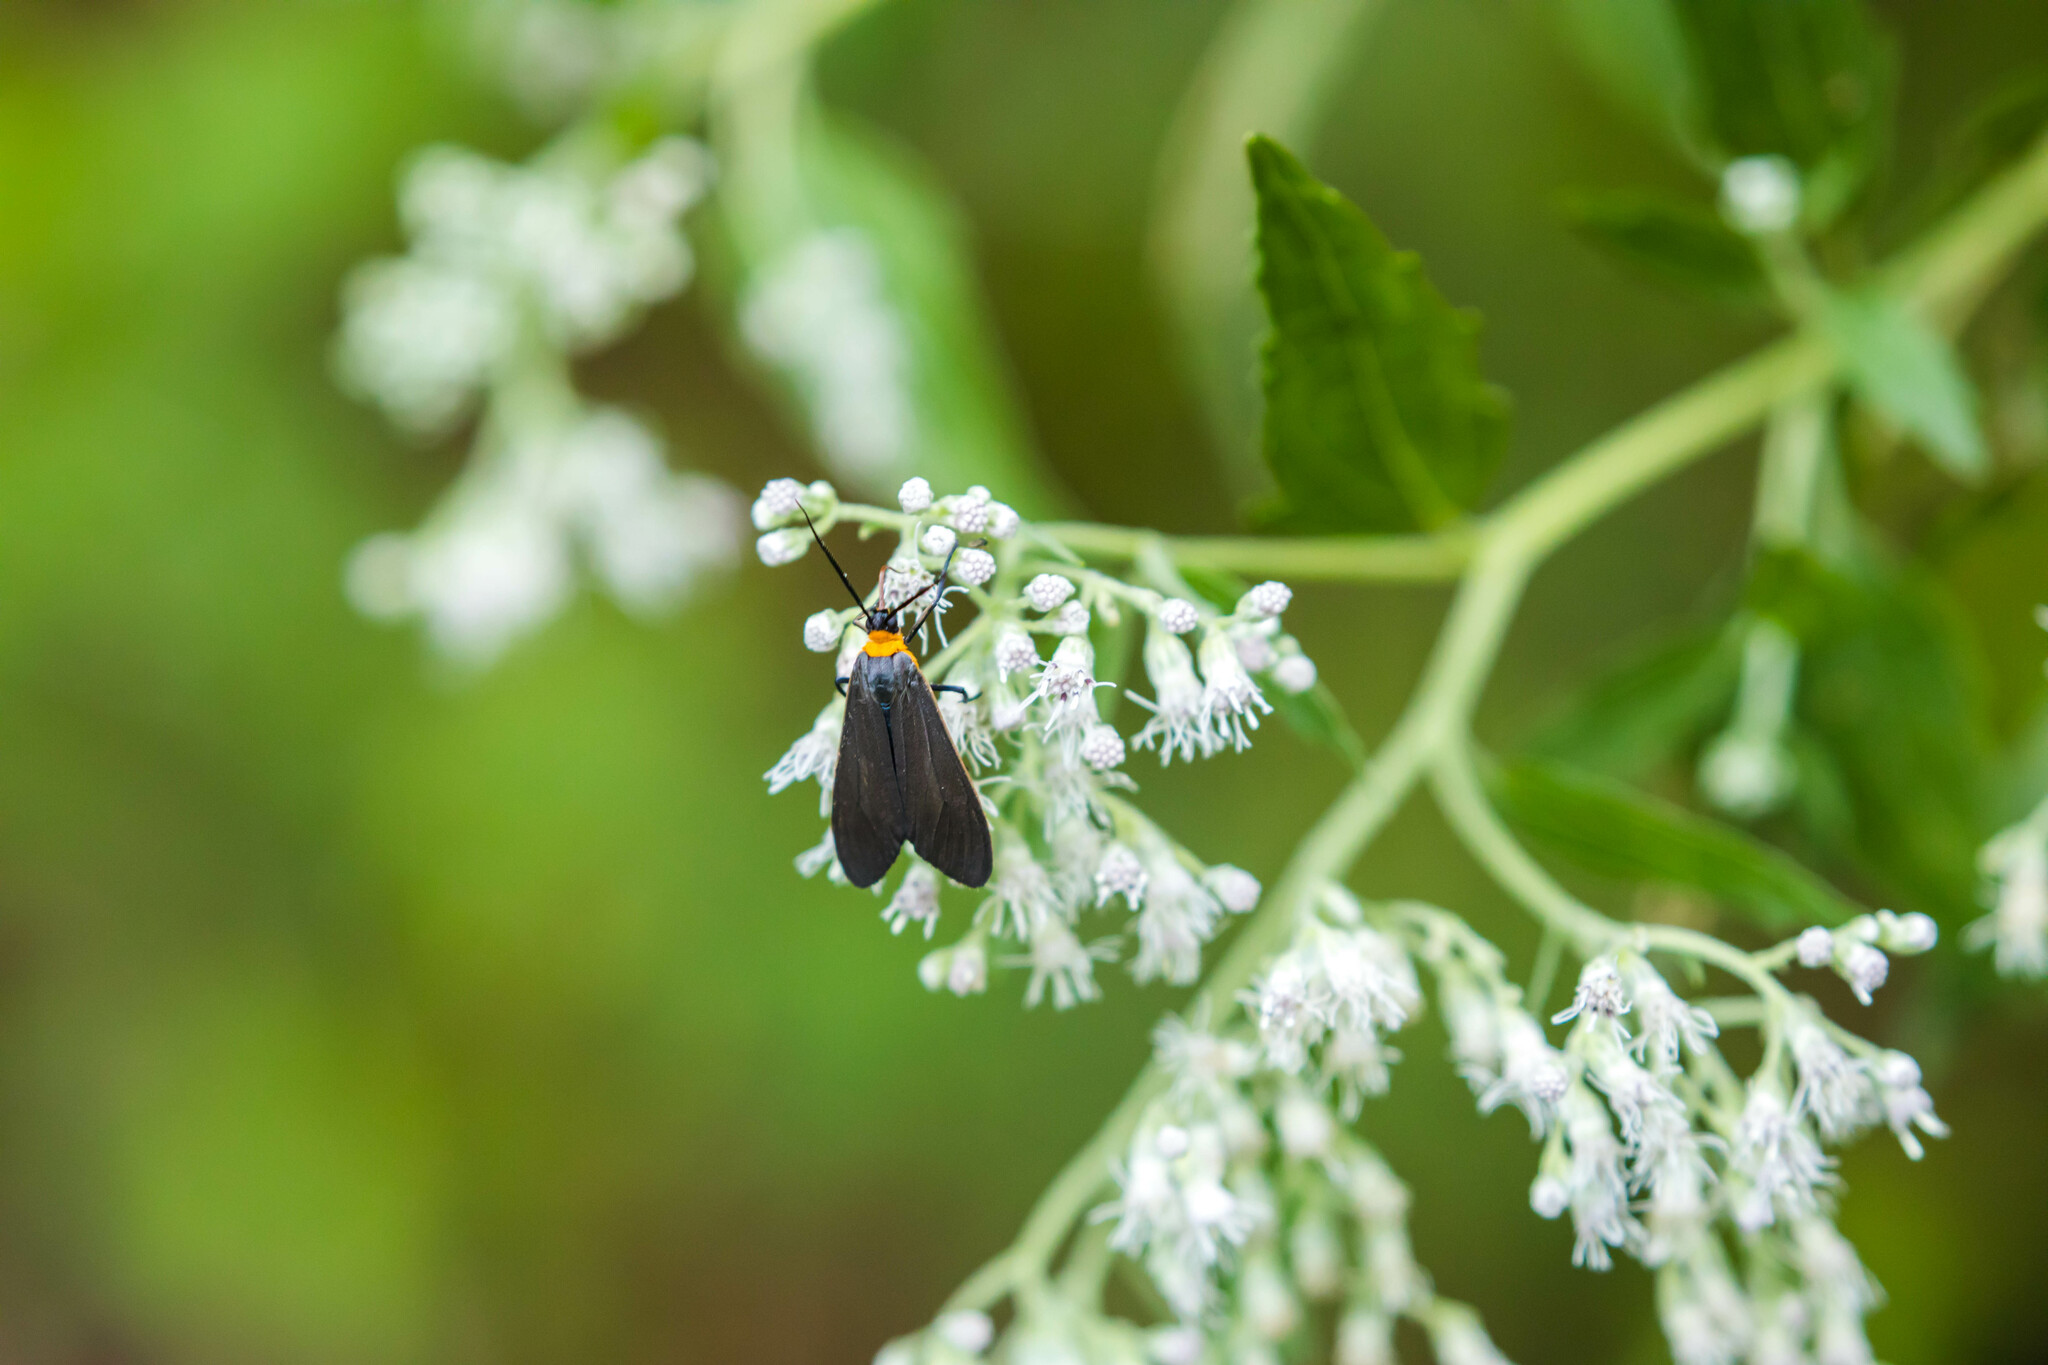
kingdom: Animalia
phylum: Arthropoda
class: Insecta
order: Lepidoptera
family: Erebidae
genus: Cisseps
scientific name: Cisseps fulvicollis
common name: Yellow-collared scape moth
